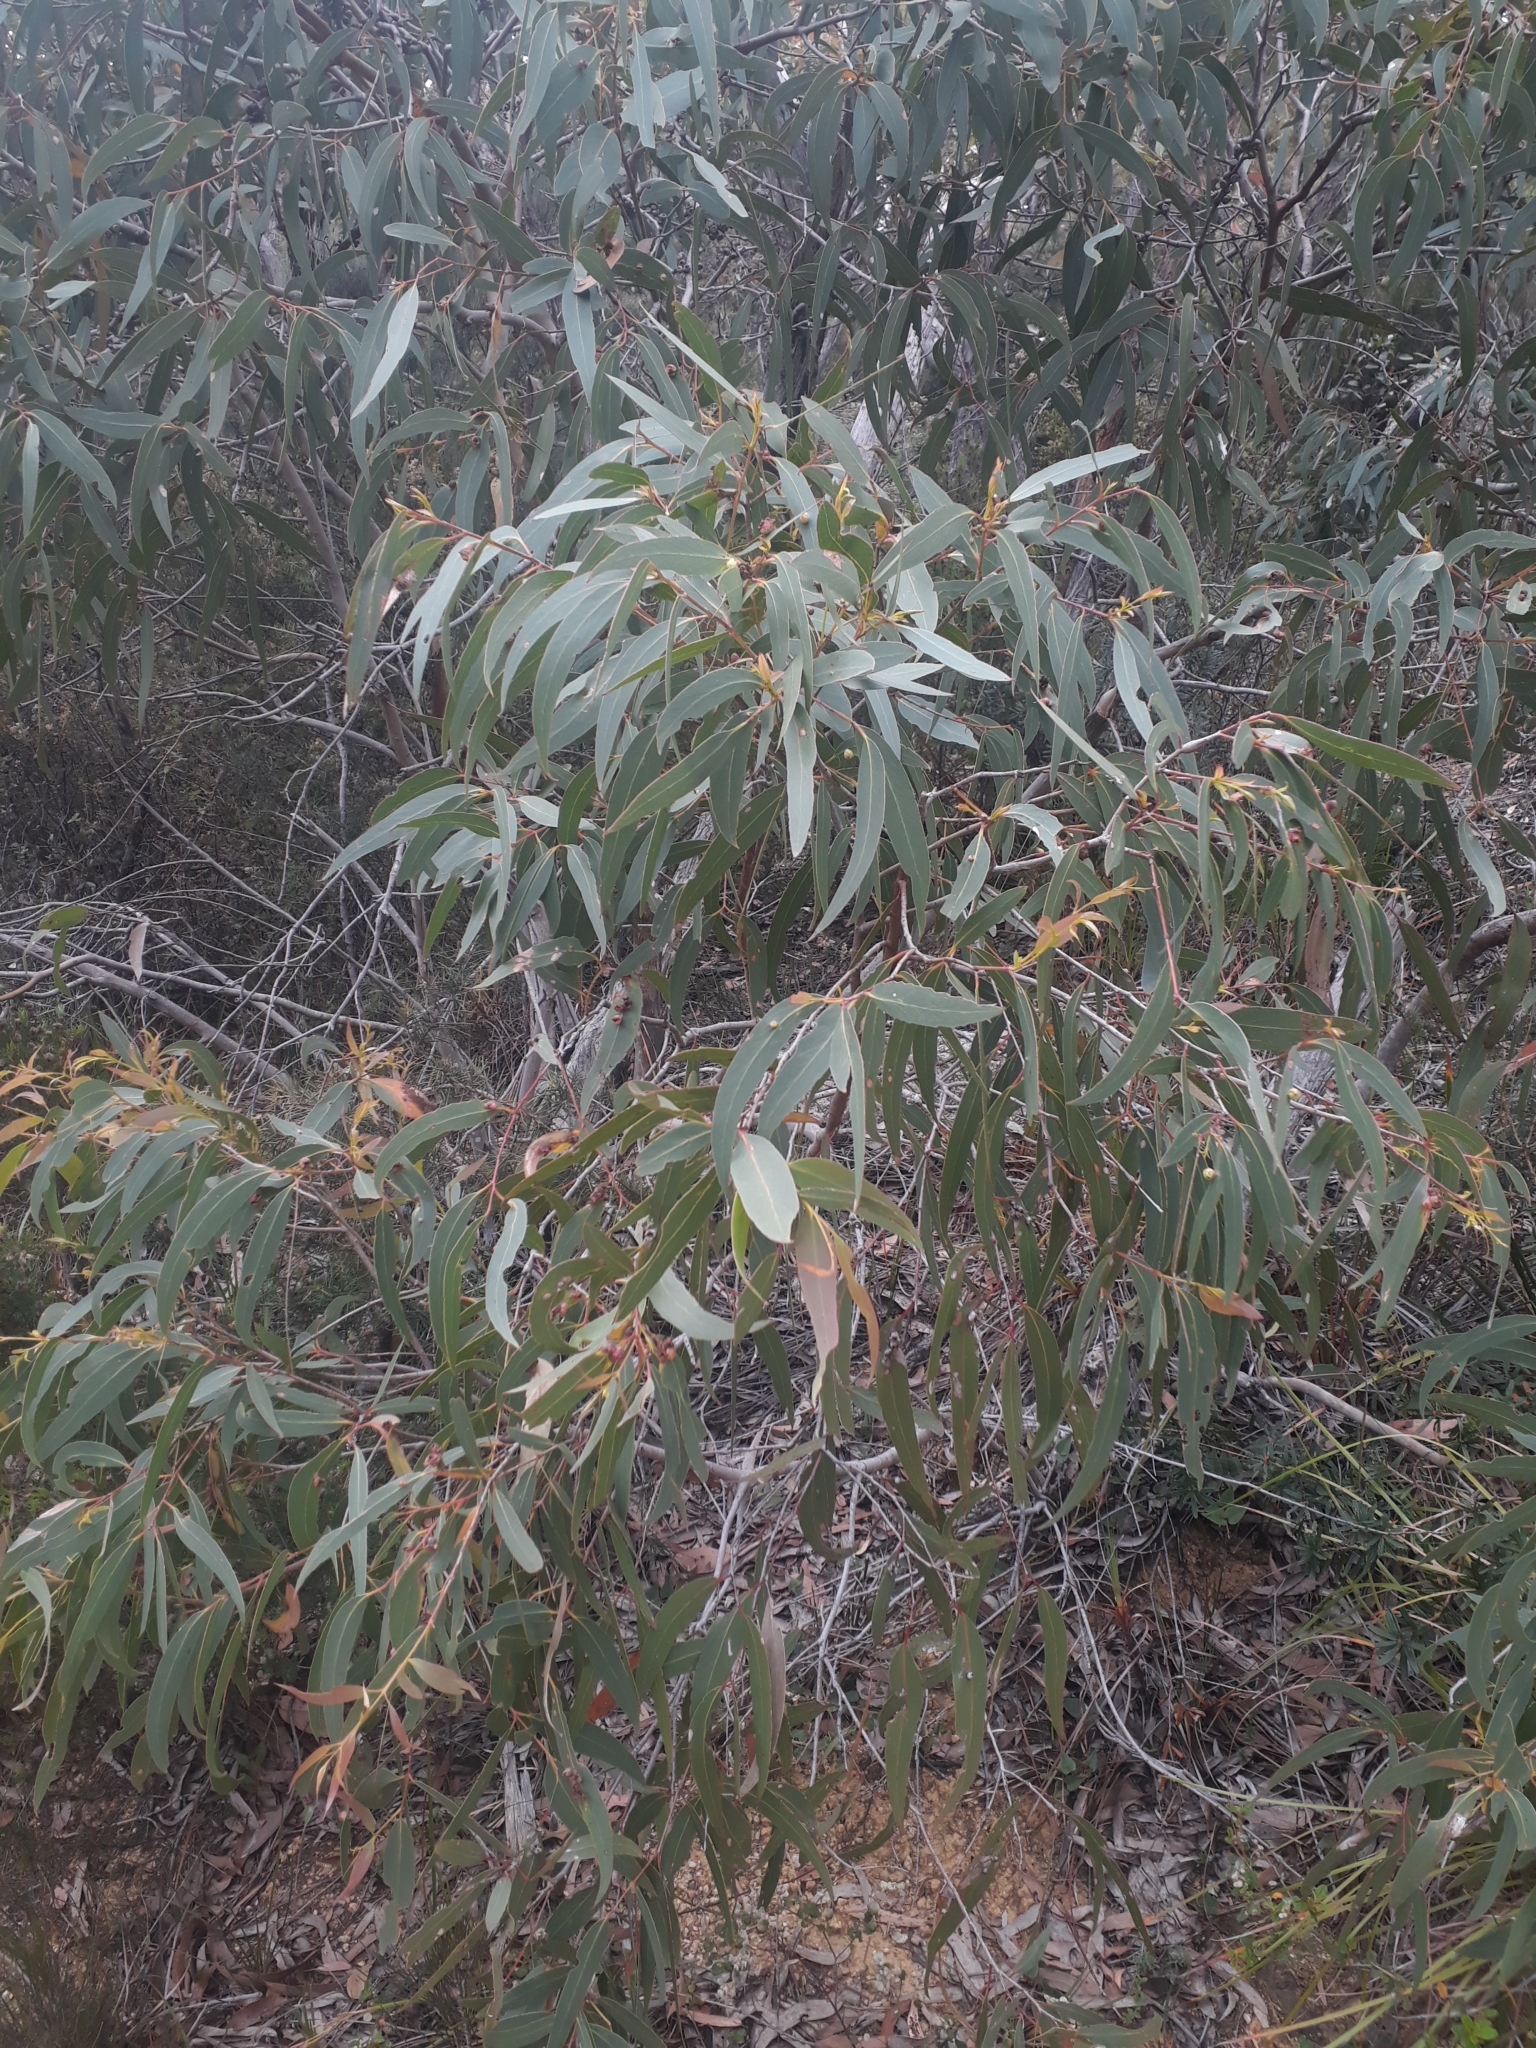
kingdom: Plantae
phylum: Tracheophyta
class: Magnoliopsida
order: Myrtales
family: Myrtaceae
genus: Eucalyptus
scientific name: Eucalyptus willisii
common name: South gippsland peppermint
